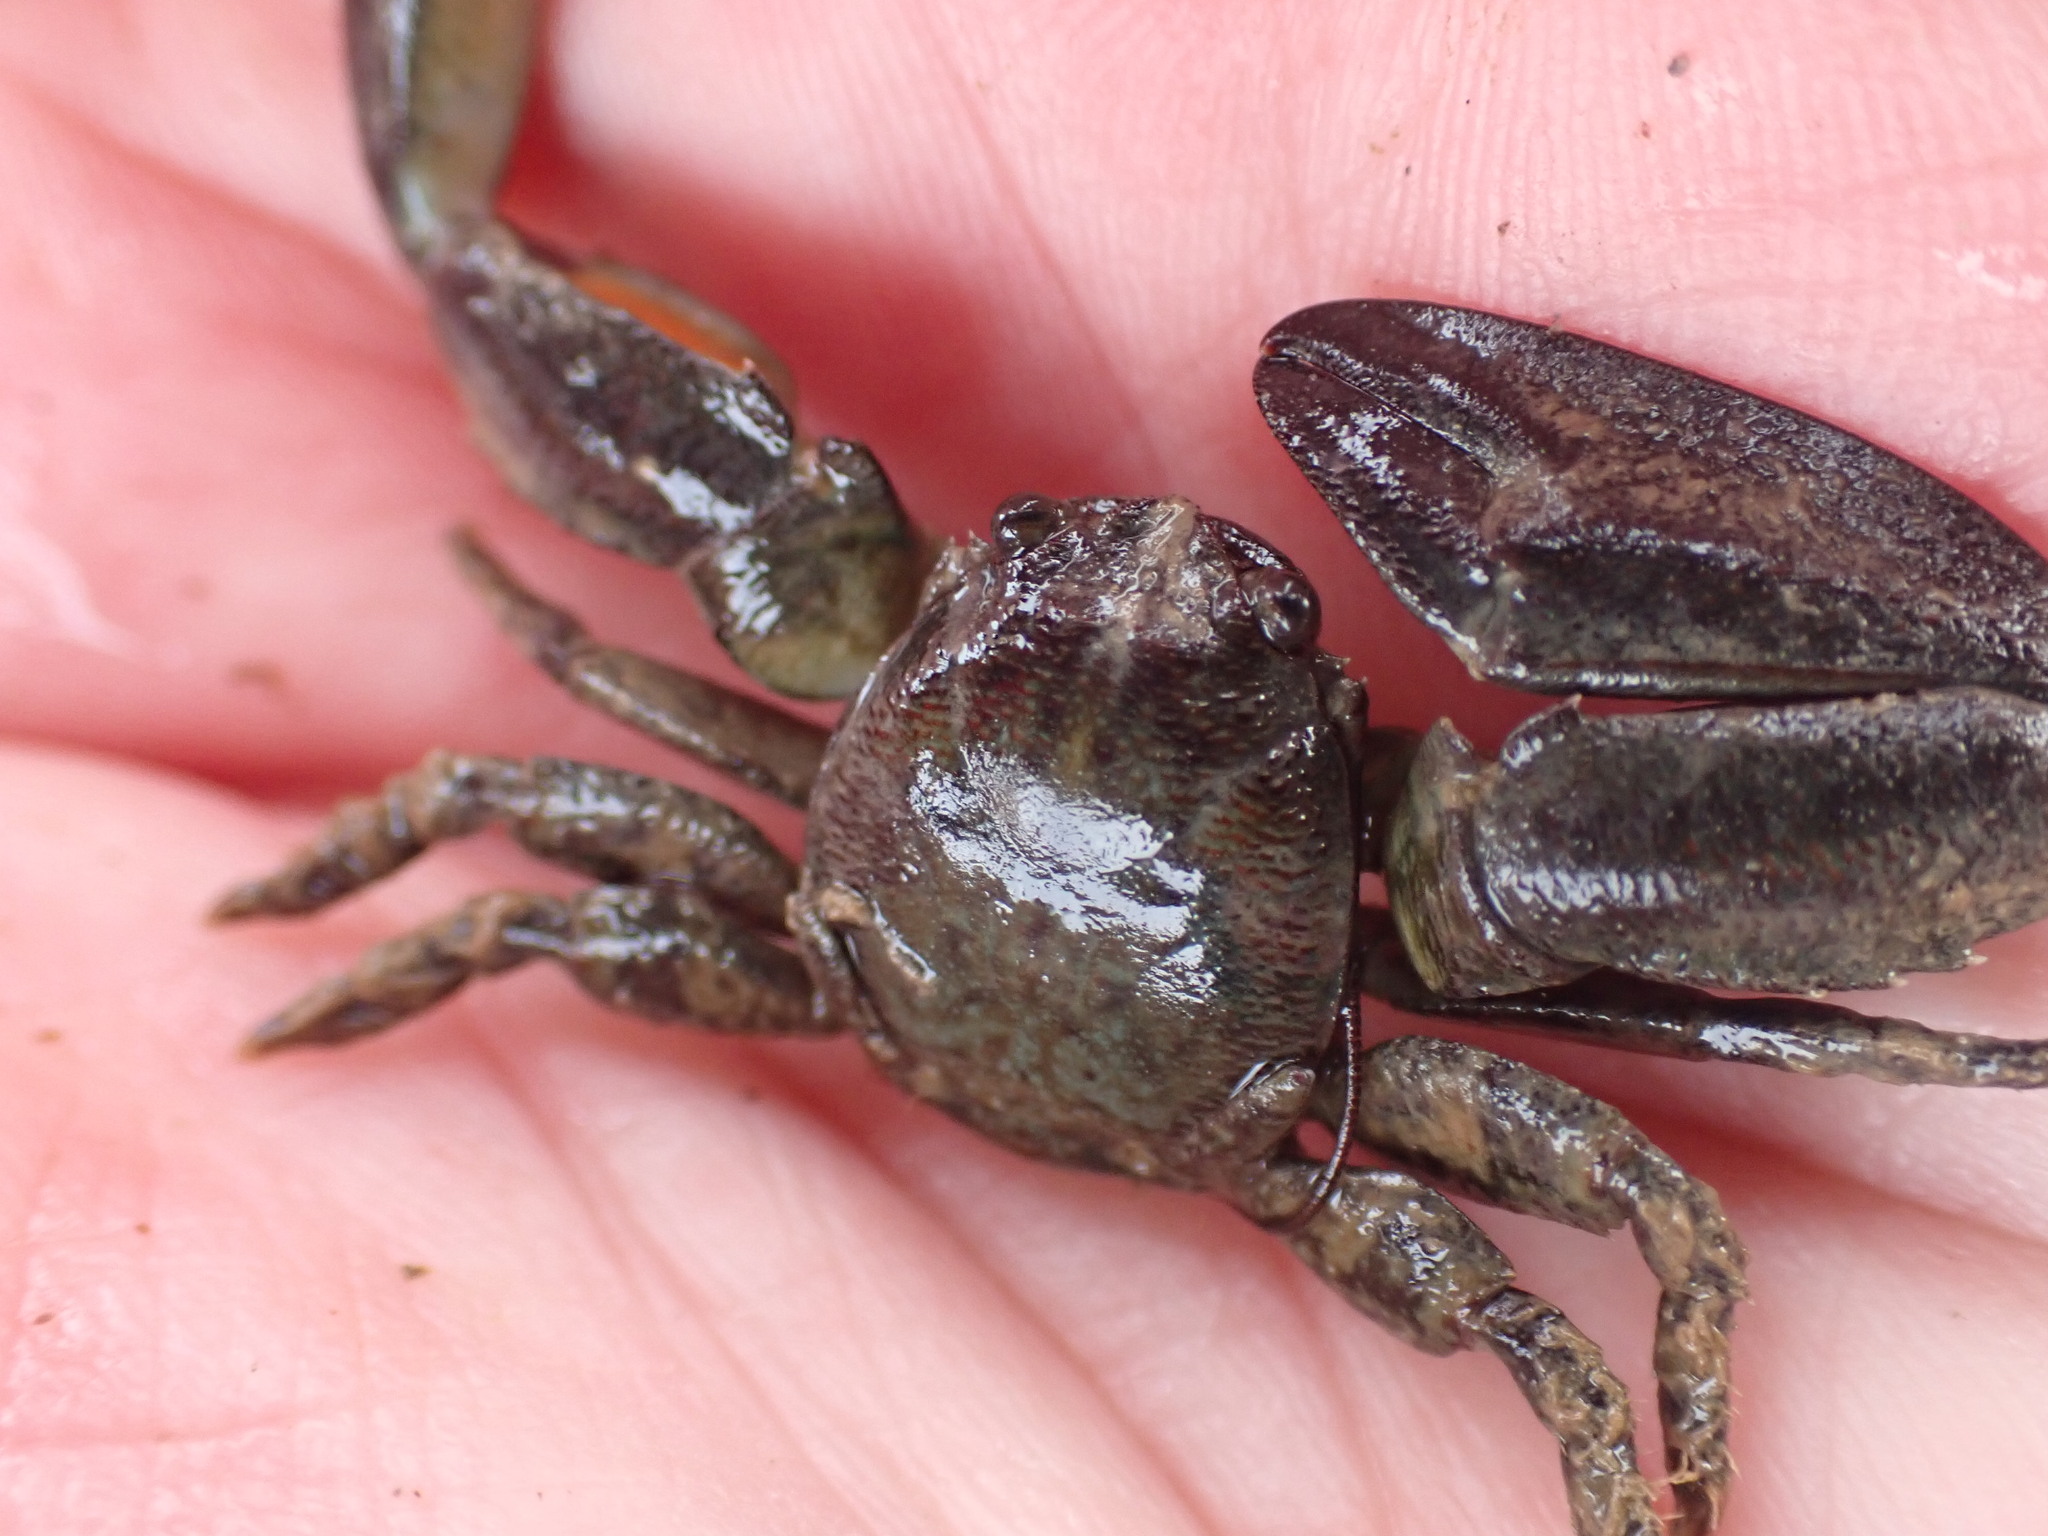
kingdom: Animalia
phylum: Arthropoda
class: Malacostraca
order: Decapoda
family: Porcellanidae
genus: Petrolisthes
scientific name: Petrolisthes elongatus
